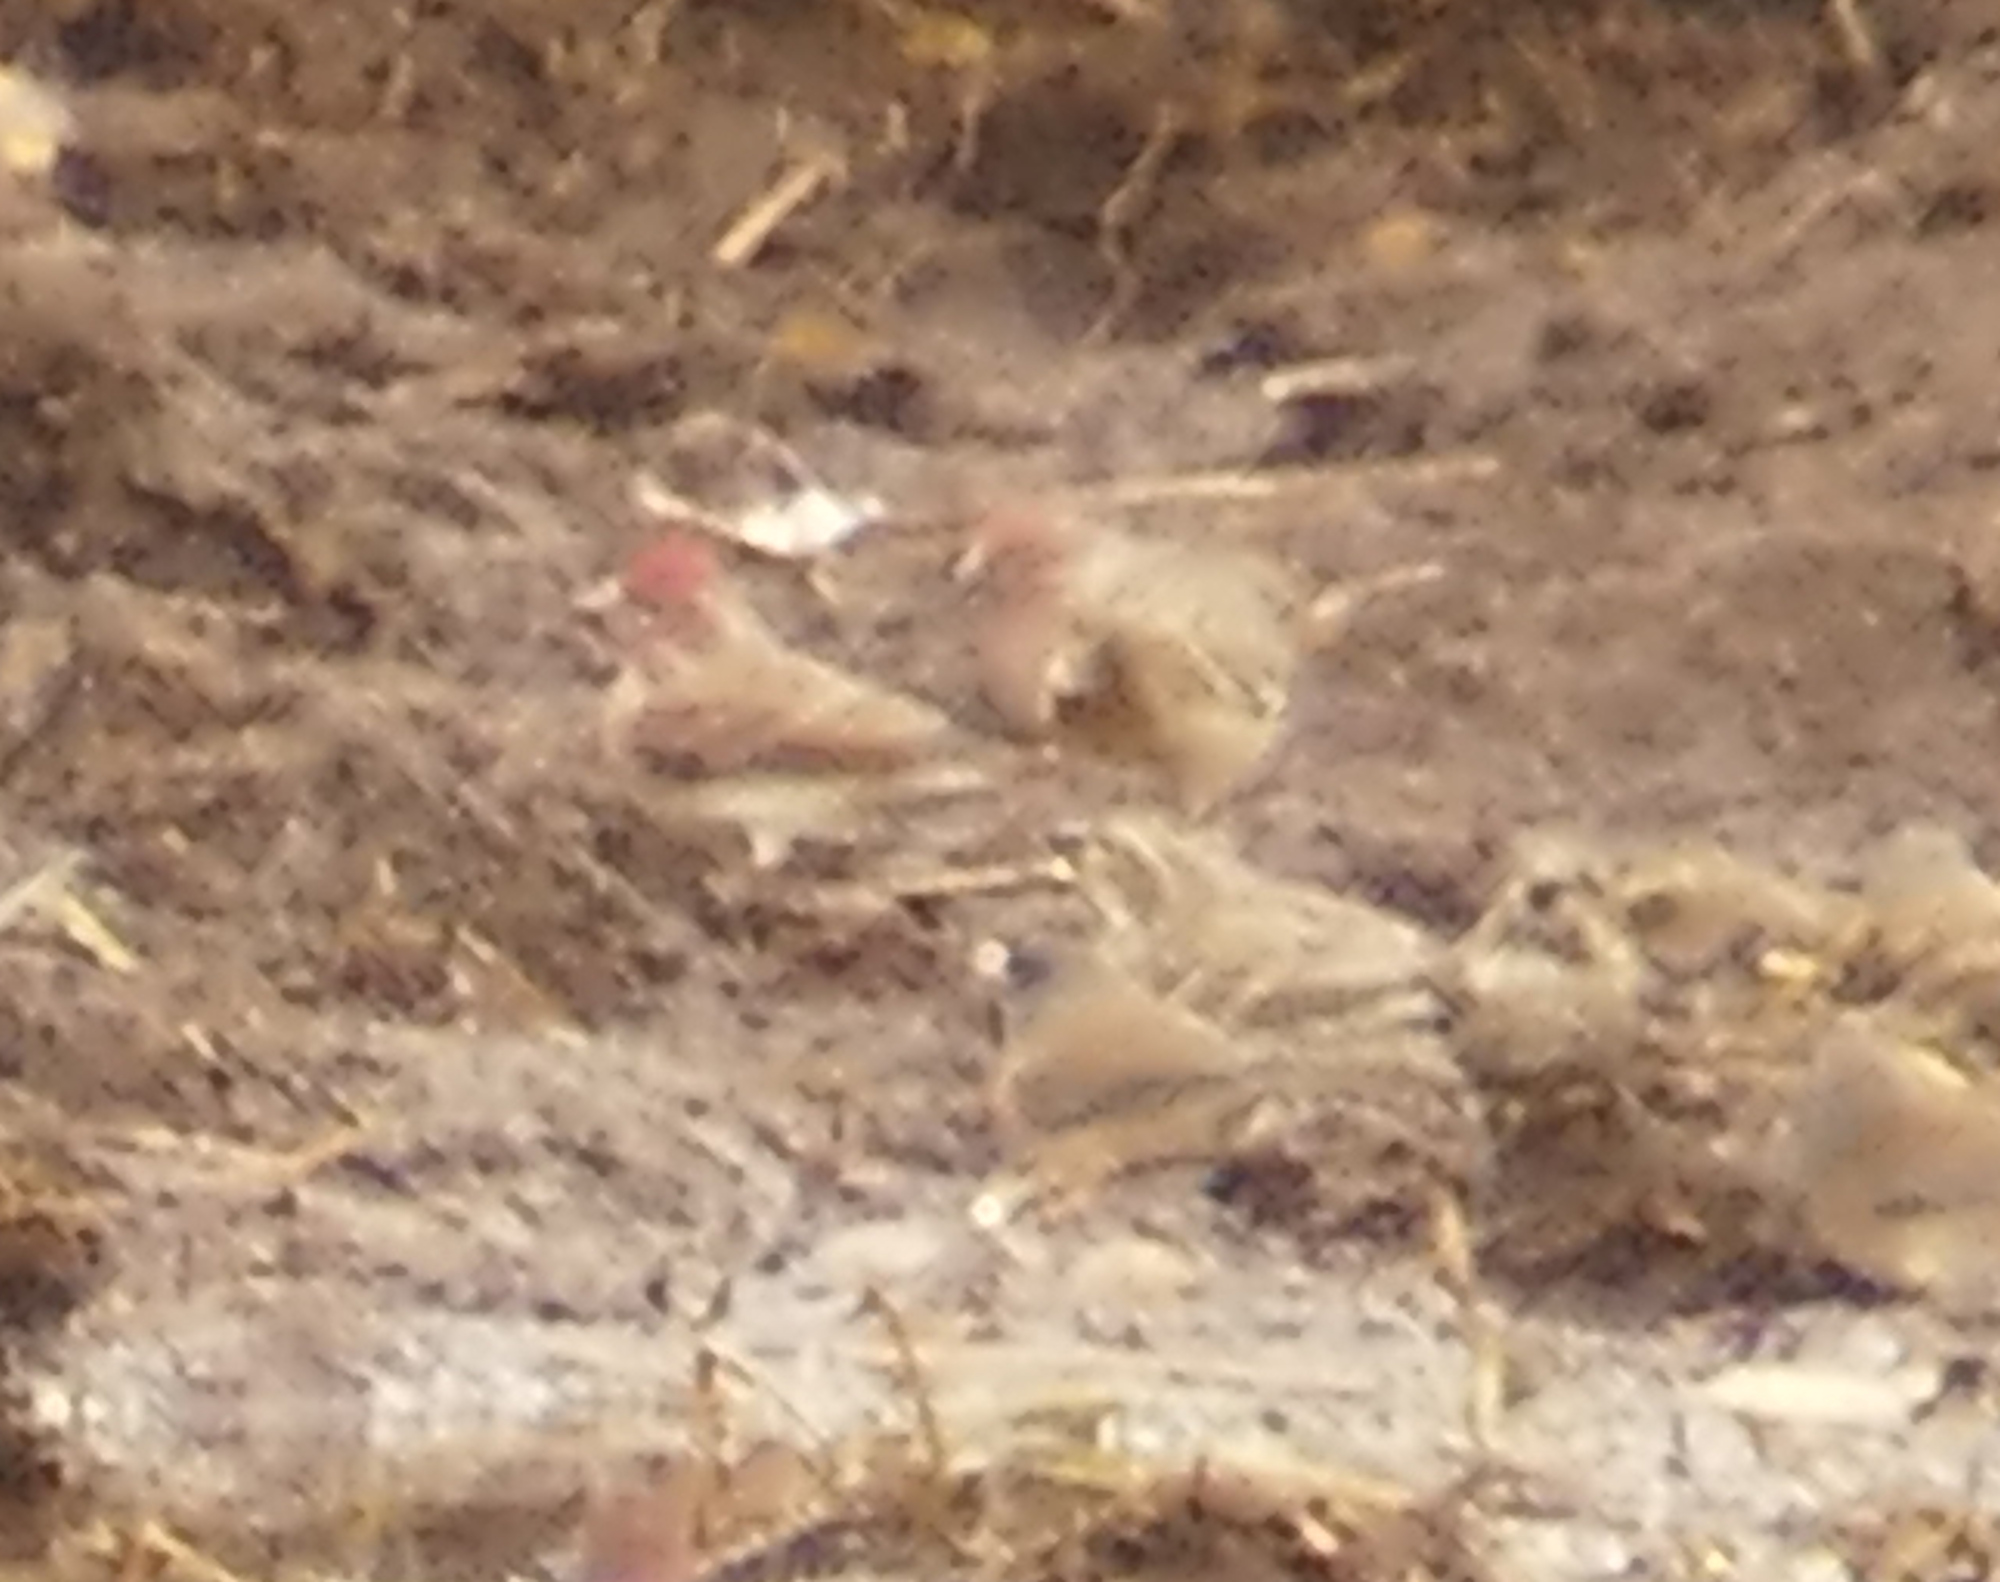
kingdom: Animalia
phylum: Chordata
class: Aves
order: Passeriformes
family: Fringillidae
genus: Haemorhous
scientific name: Haemorhous cassinii
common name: Cassin's finch
